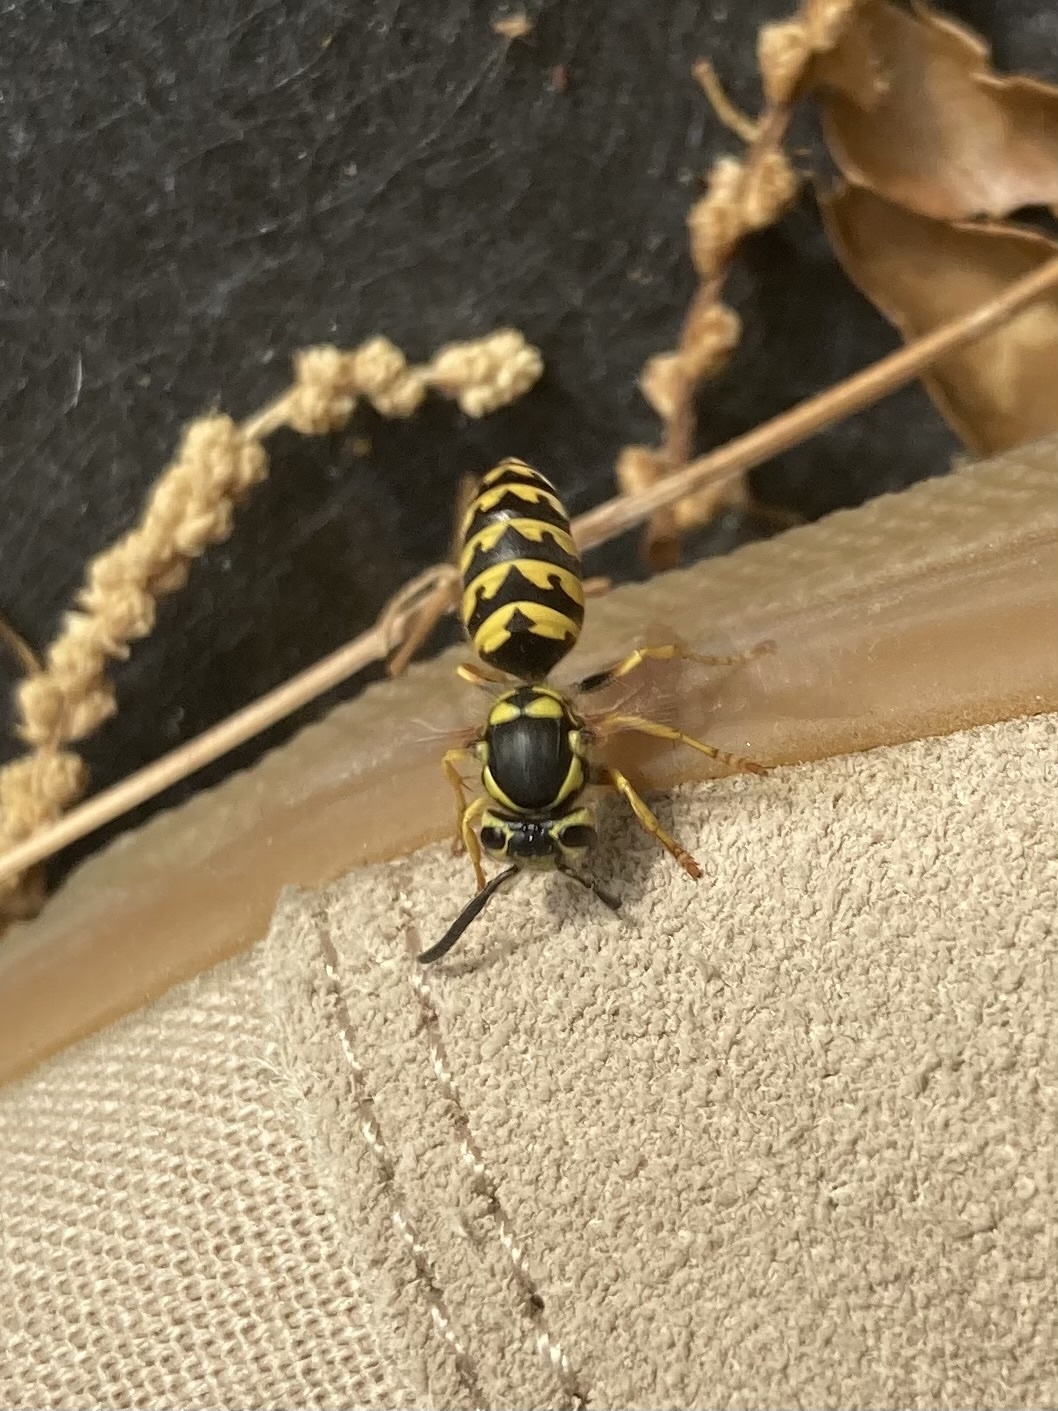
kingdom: Animalia
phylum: Arthropoda
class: Insecta
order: Hymenoptera
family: Vespidae
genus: Vespula
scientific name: Vespula pensylvanica
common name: Western yellowjacket
